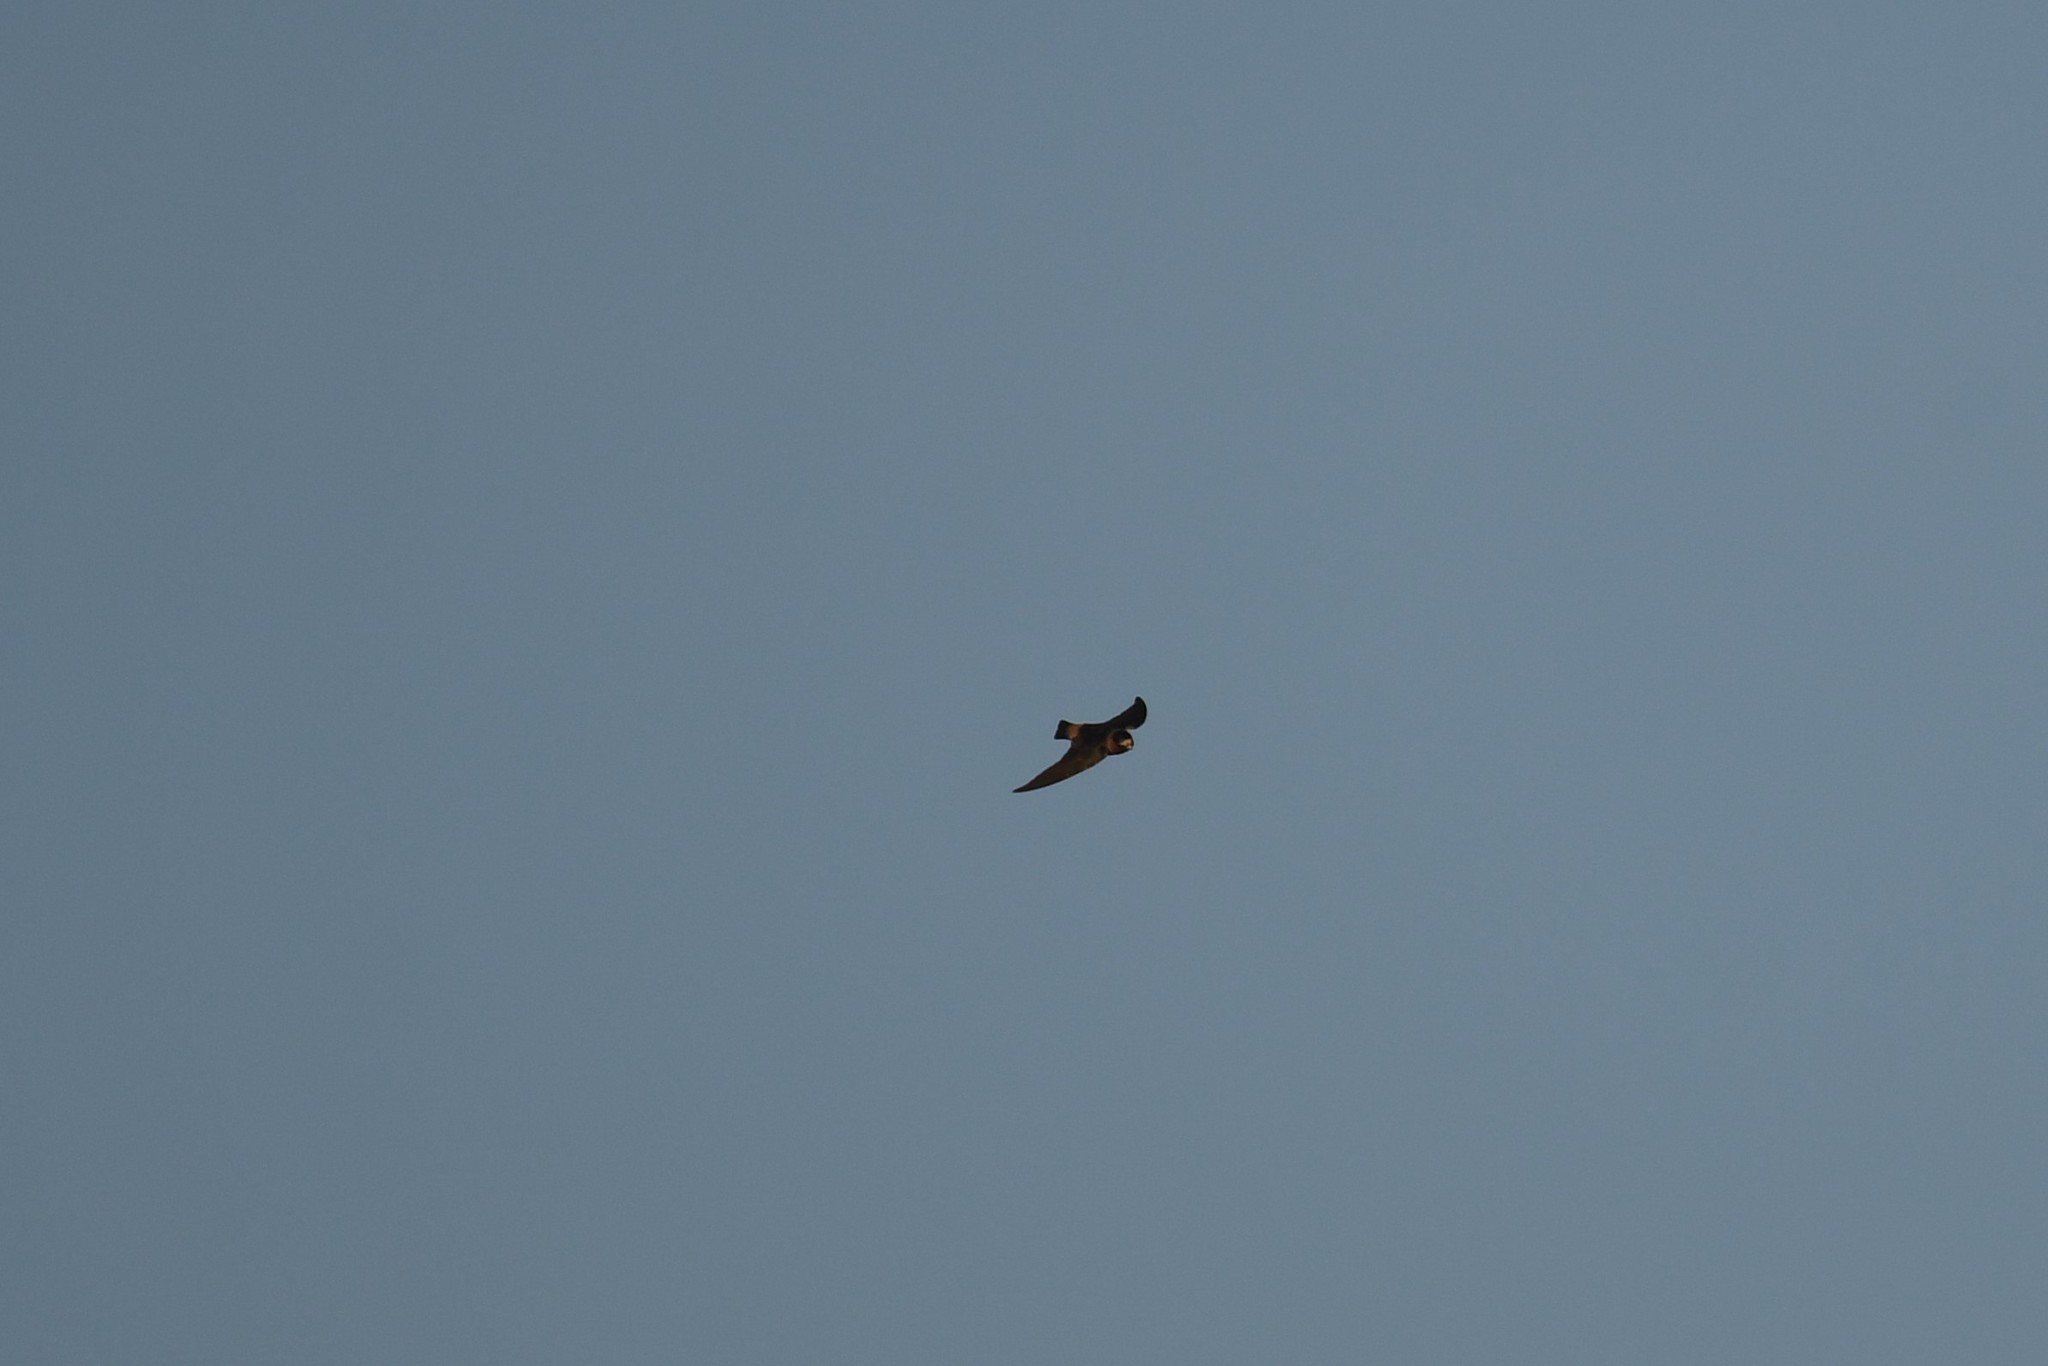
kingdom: Animalia
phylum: Chordata
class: Aves
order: Passeriformes
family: Hirundinidae
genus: Petrochelidon
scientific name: Petrochelidon pyrrhonota
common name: American cliff swallow
